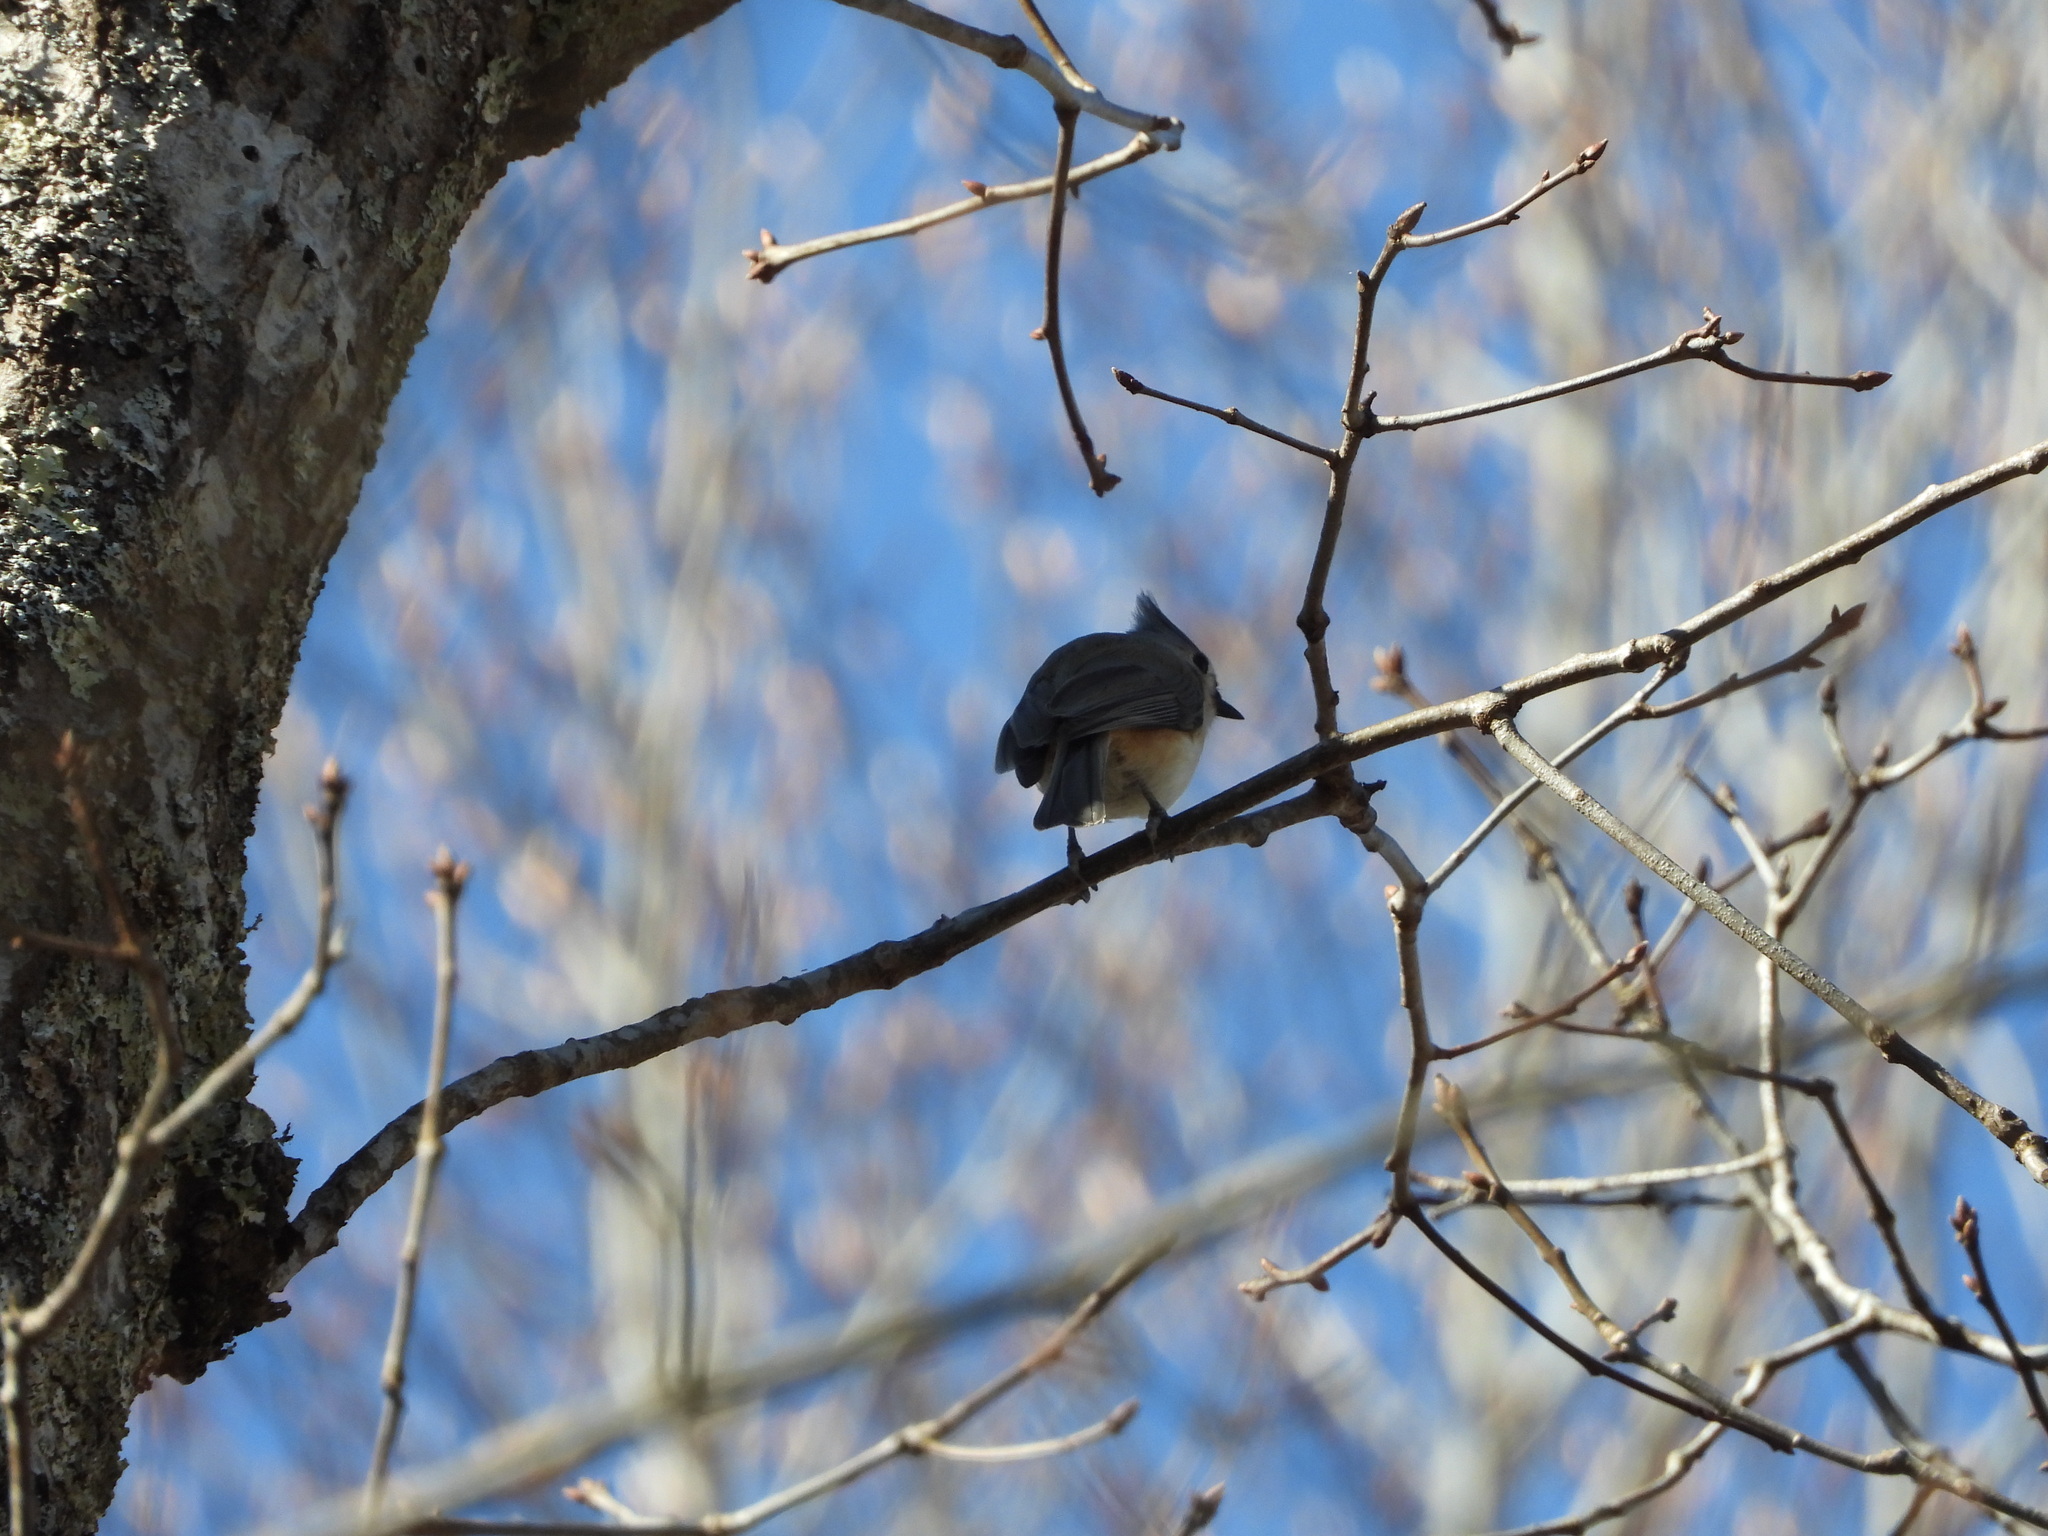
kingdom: Animalia
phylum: Chordata
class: Aves
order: Passeriformes
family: Paridae
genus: Baeolophus
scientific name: Baeolophus bicolor
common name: Tufted titmouse
